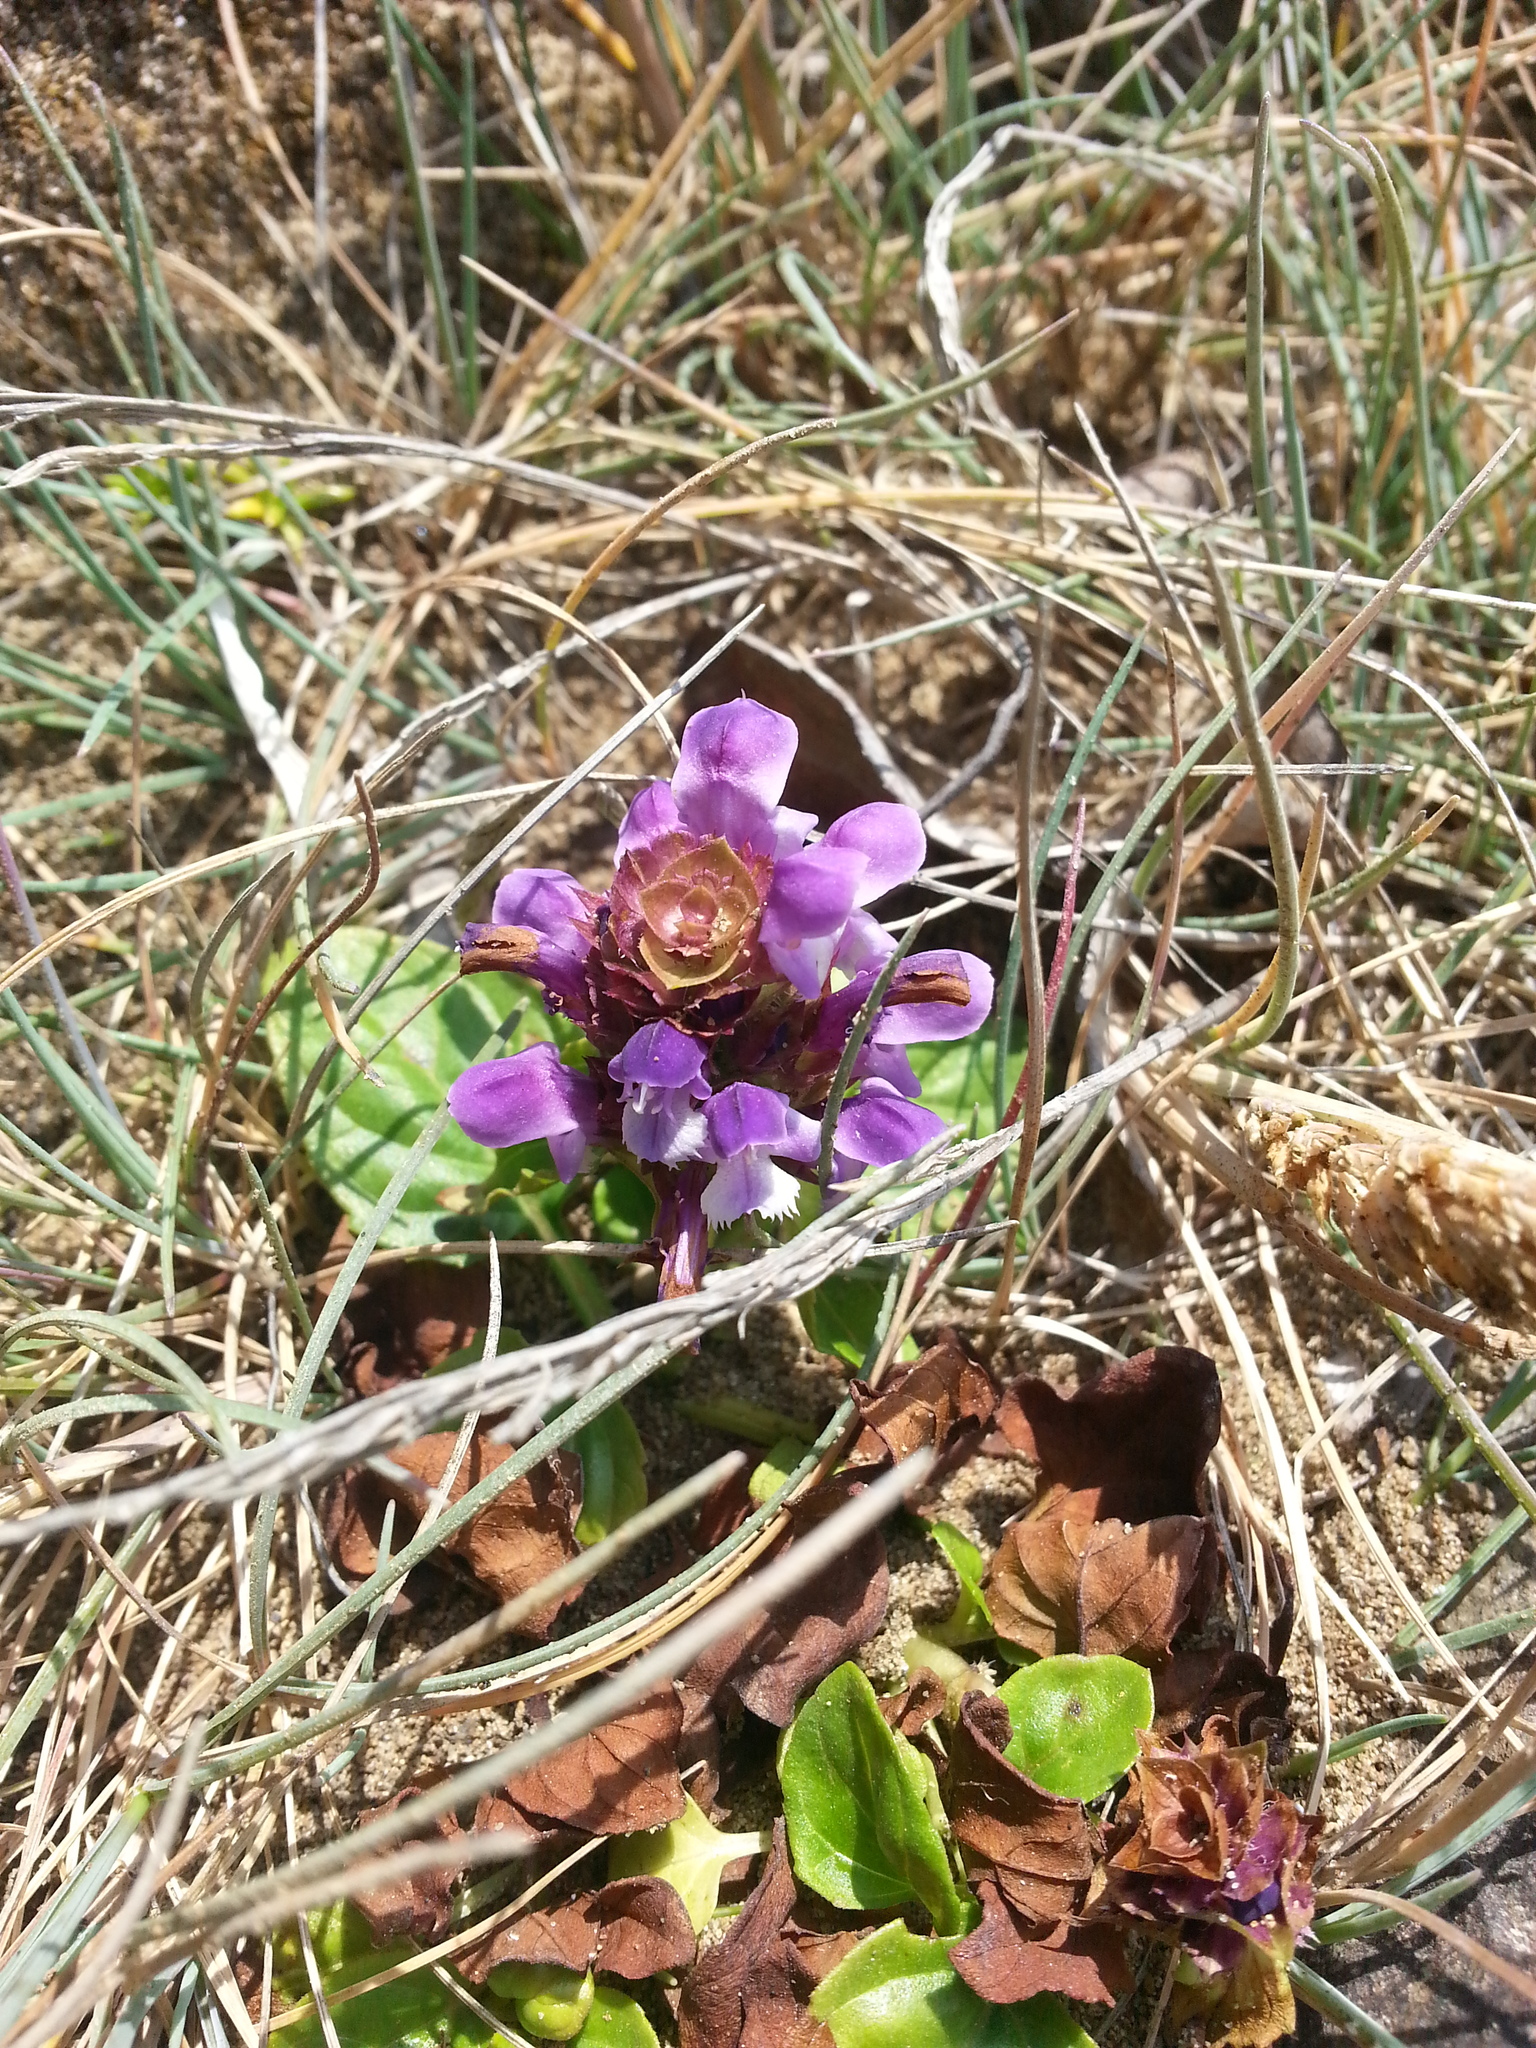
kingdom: Plantae
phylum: Tracheophyta
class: Magnoliopsida
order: Lamiales
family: Lamiaceae
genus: Prunella
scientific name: Prunella vulgaris
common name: Heal-all
